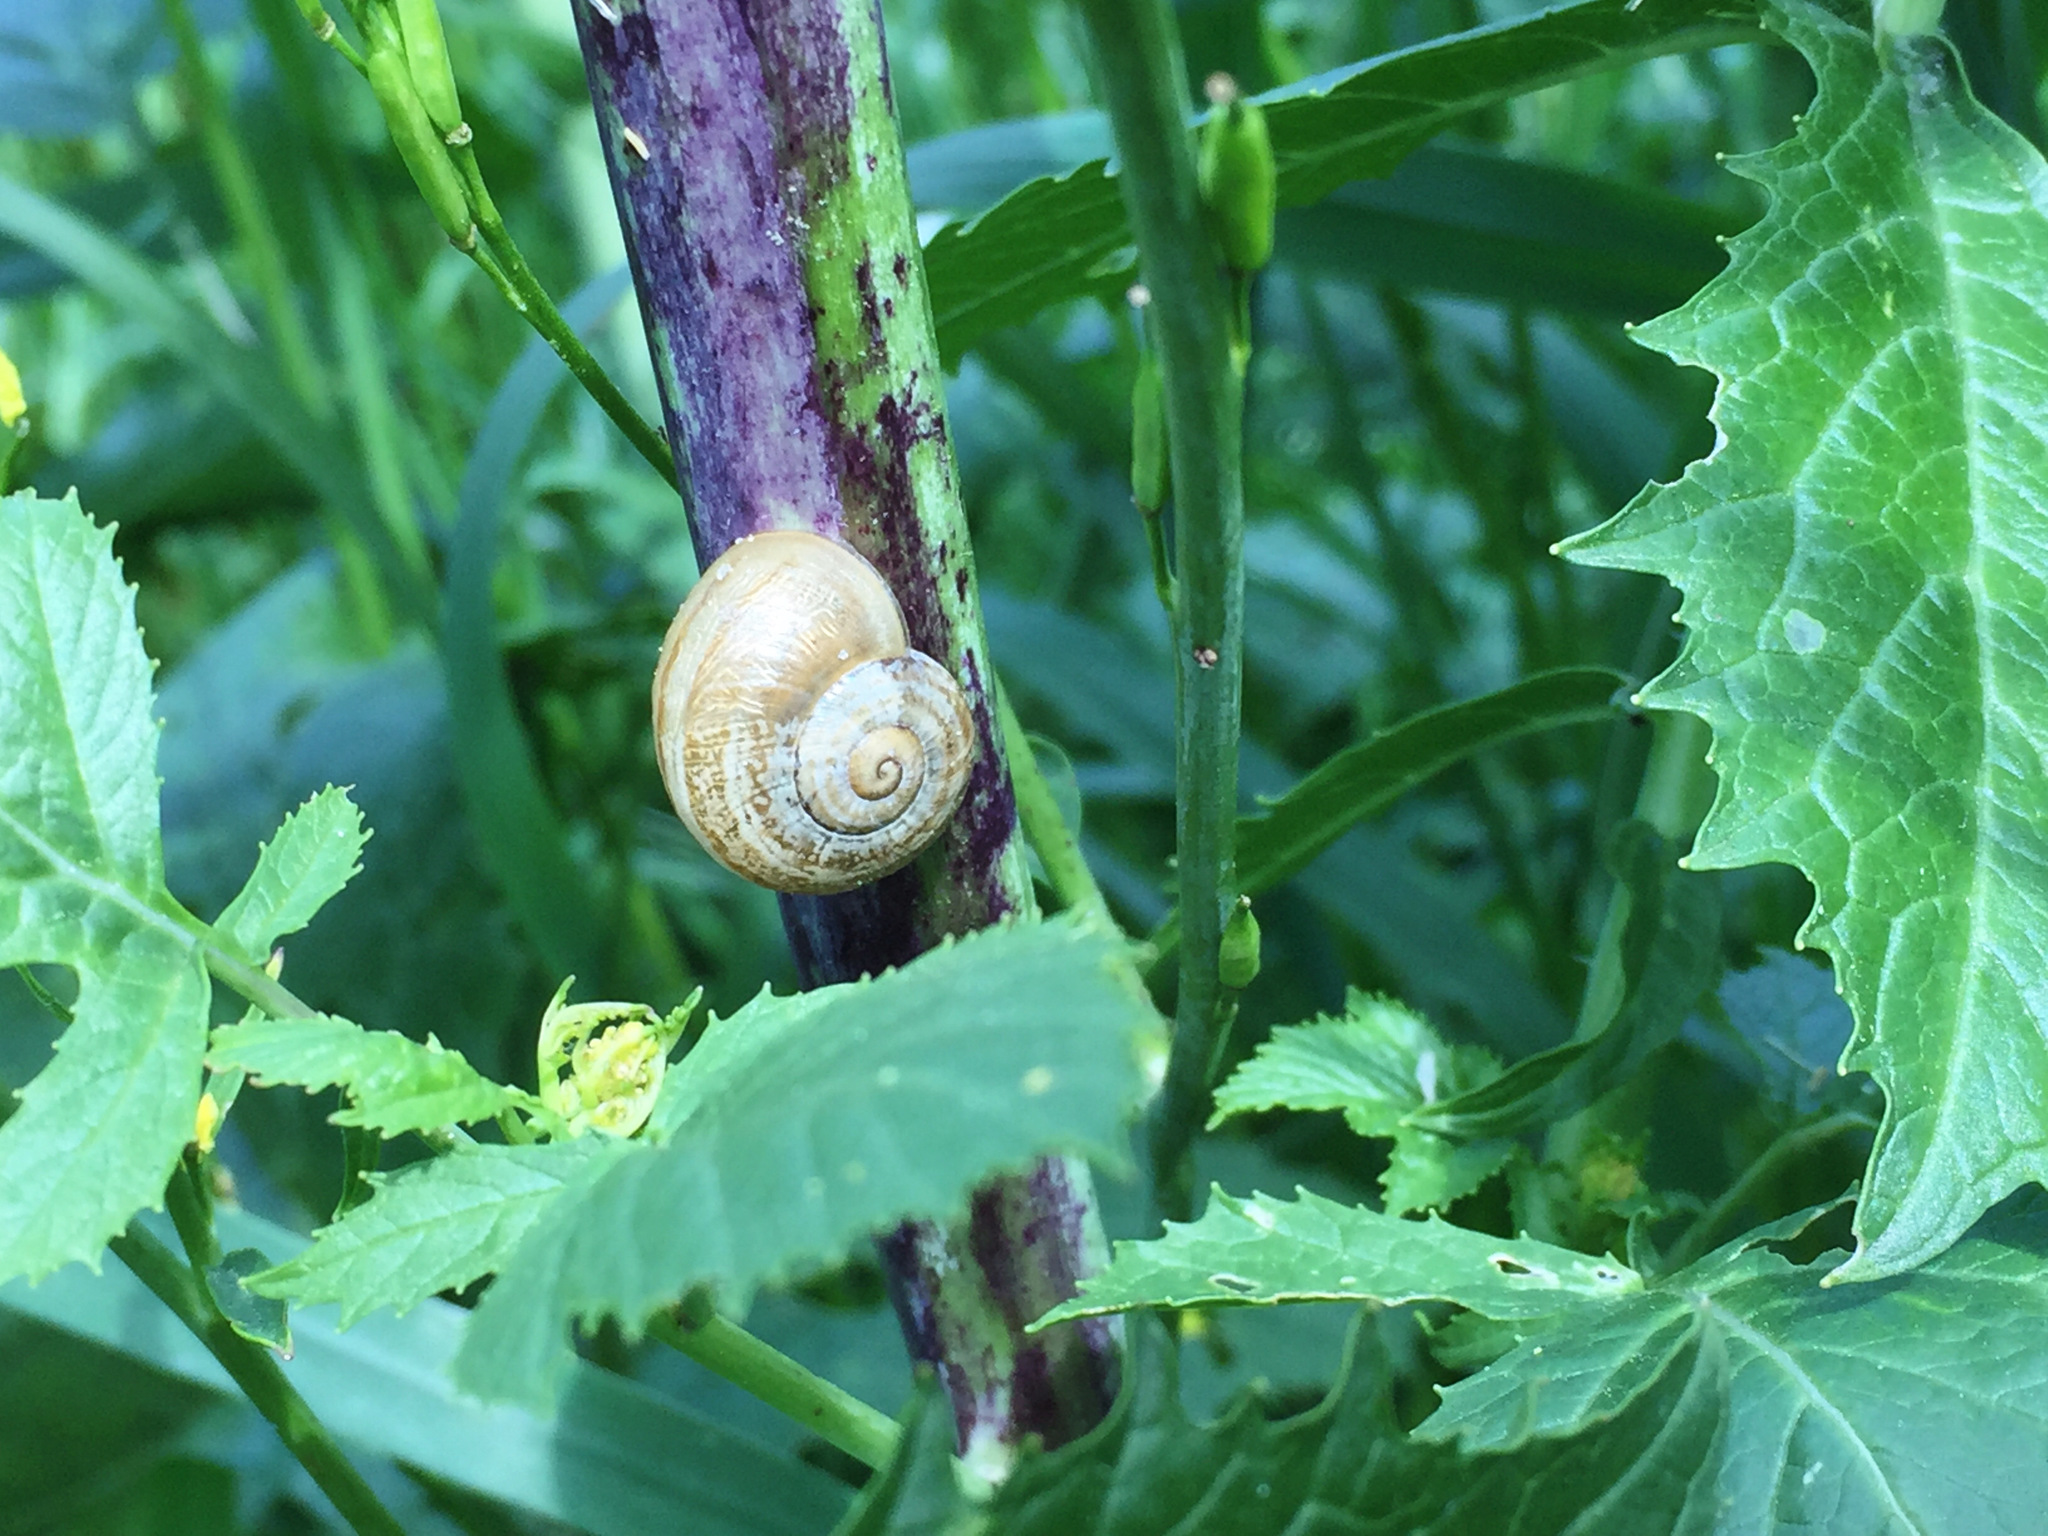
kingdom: Animalia
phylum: Mollusca
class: Gastropoda
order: Stylommatophora
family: Helicidae
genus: Theba
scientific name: Theba pisana
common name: White snail
